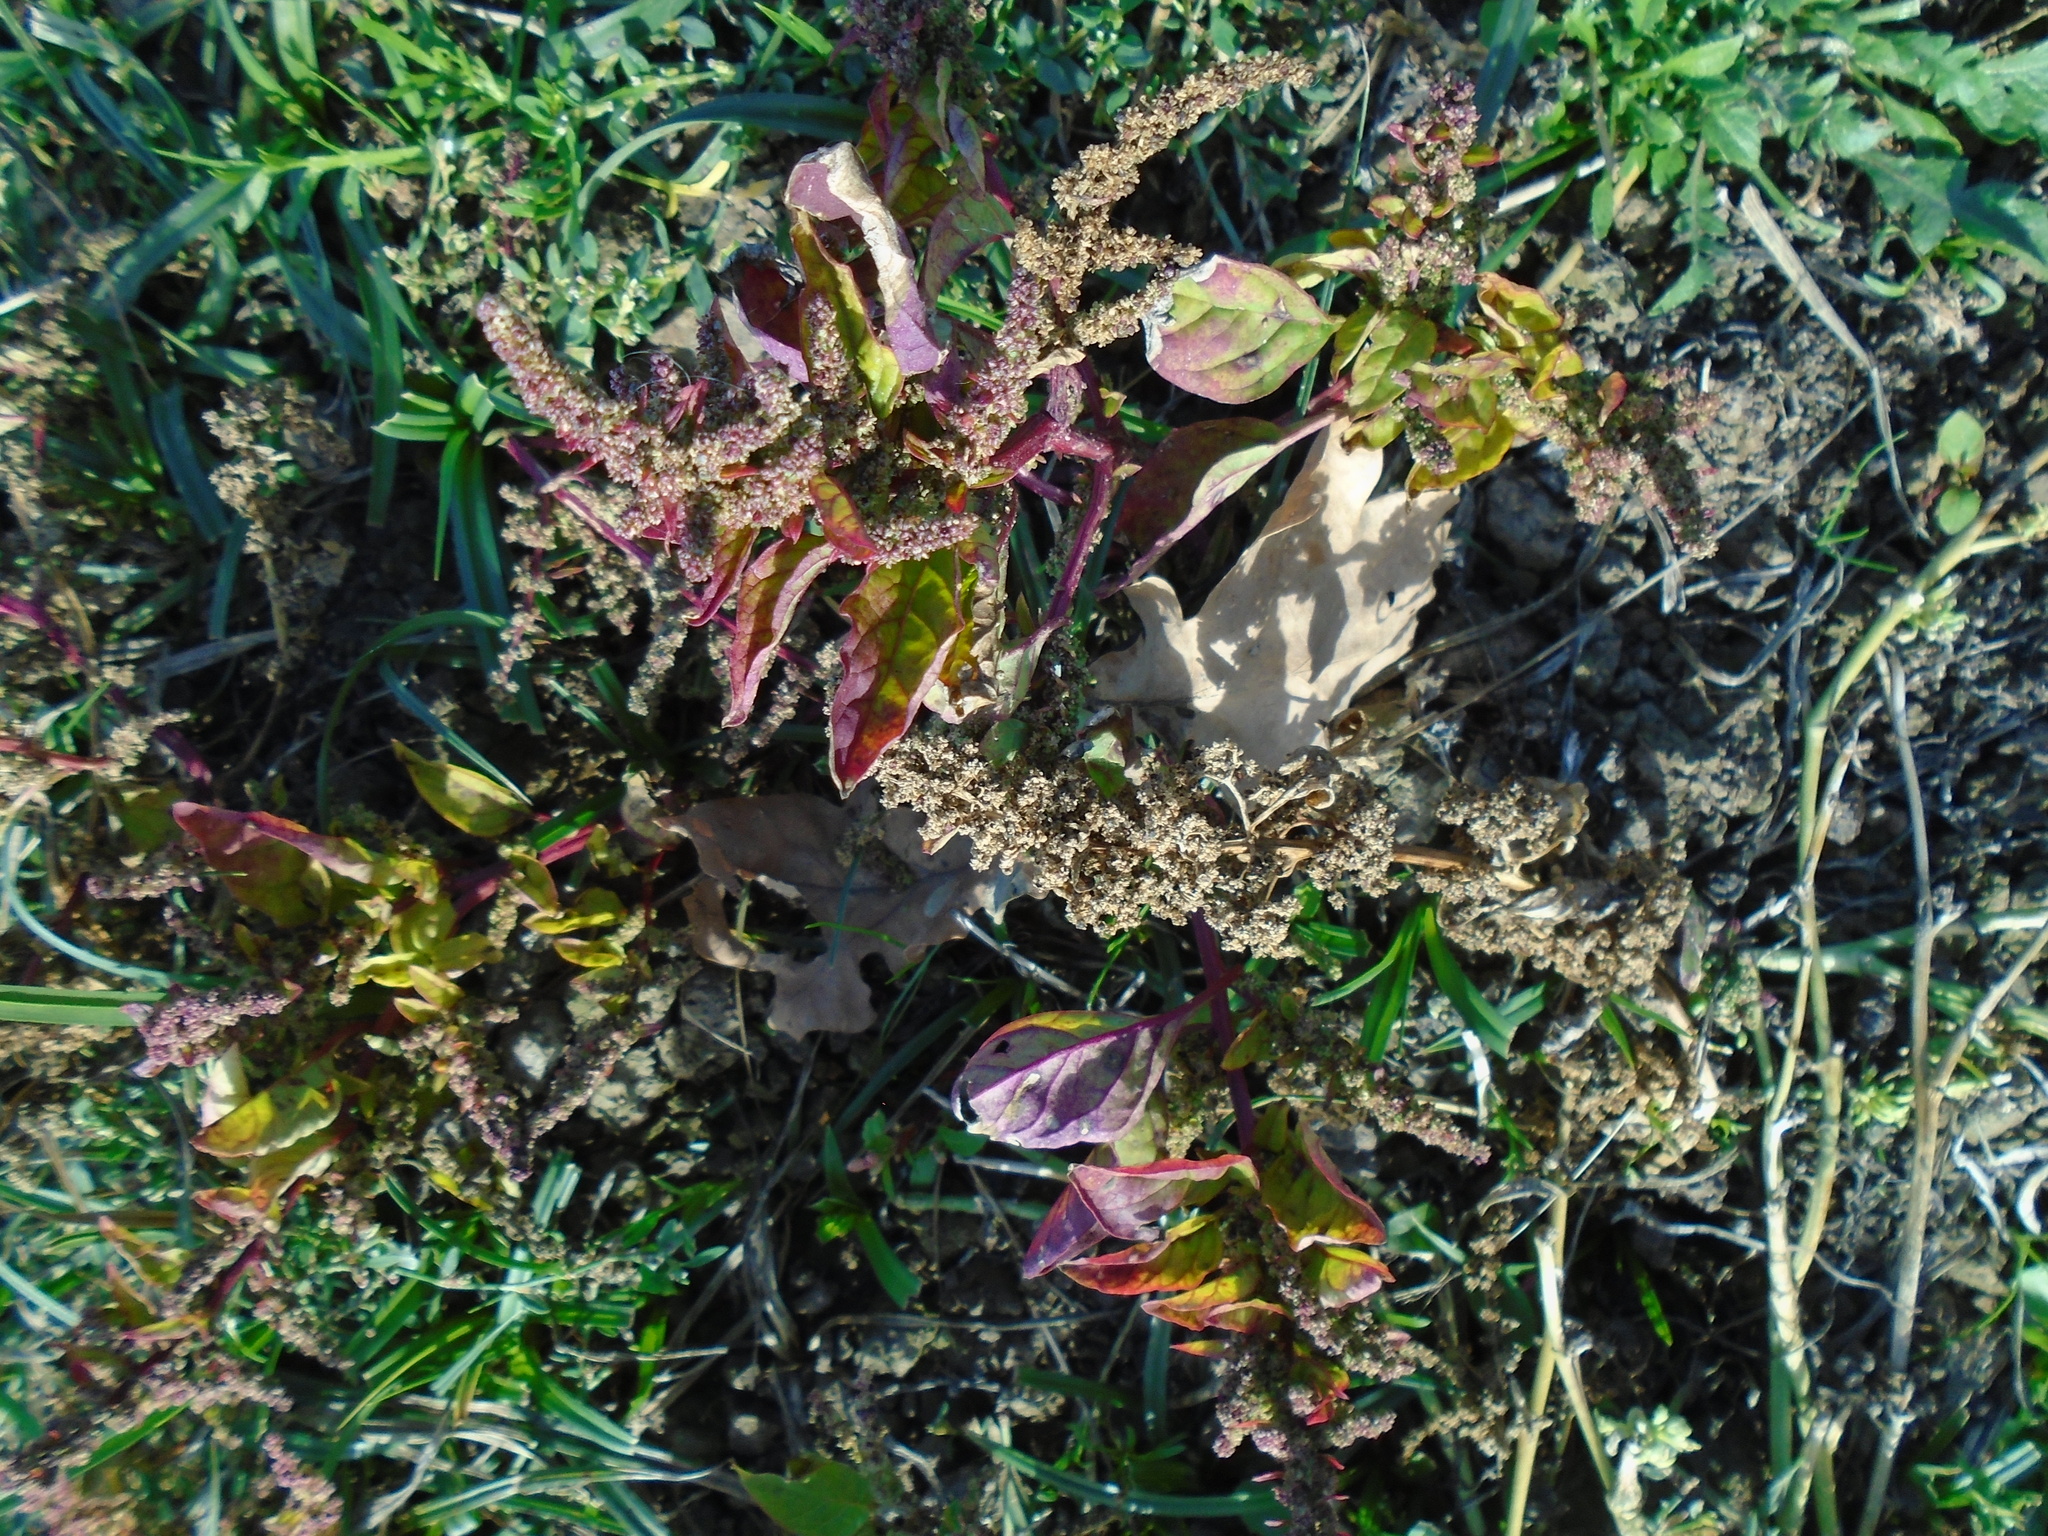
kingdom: Plantae
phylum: Tracheophyta
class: Magnoliopsida
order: Caryophyllales
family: Amaranthaceae
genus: Lipandra
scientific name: Lipandra polysperma
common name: Many-seed goosefoot
